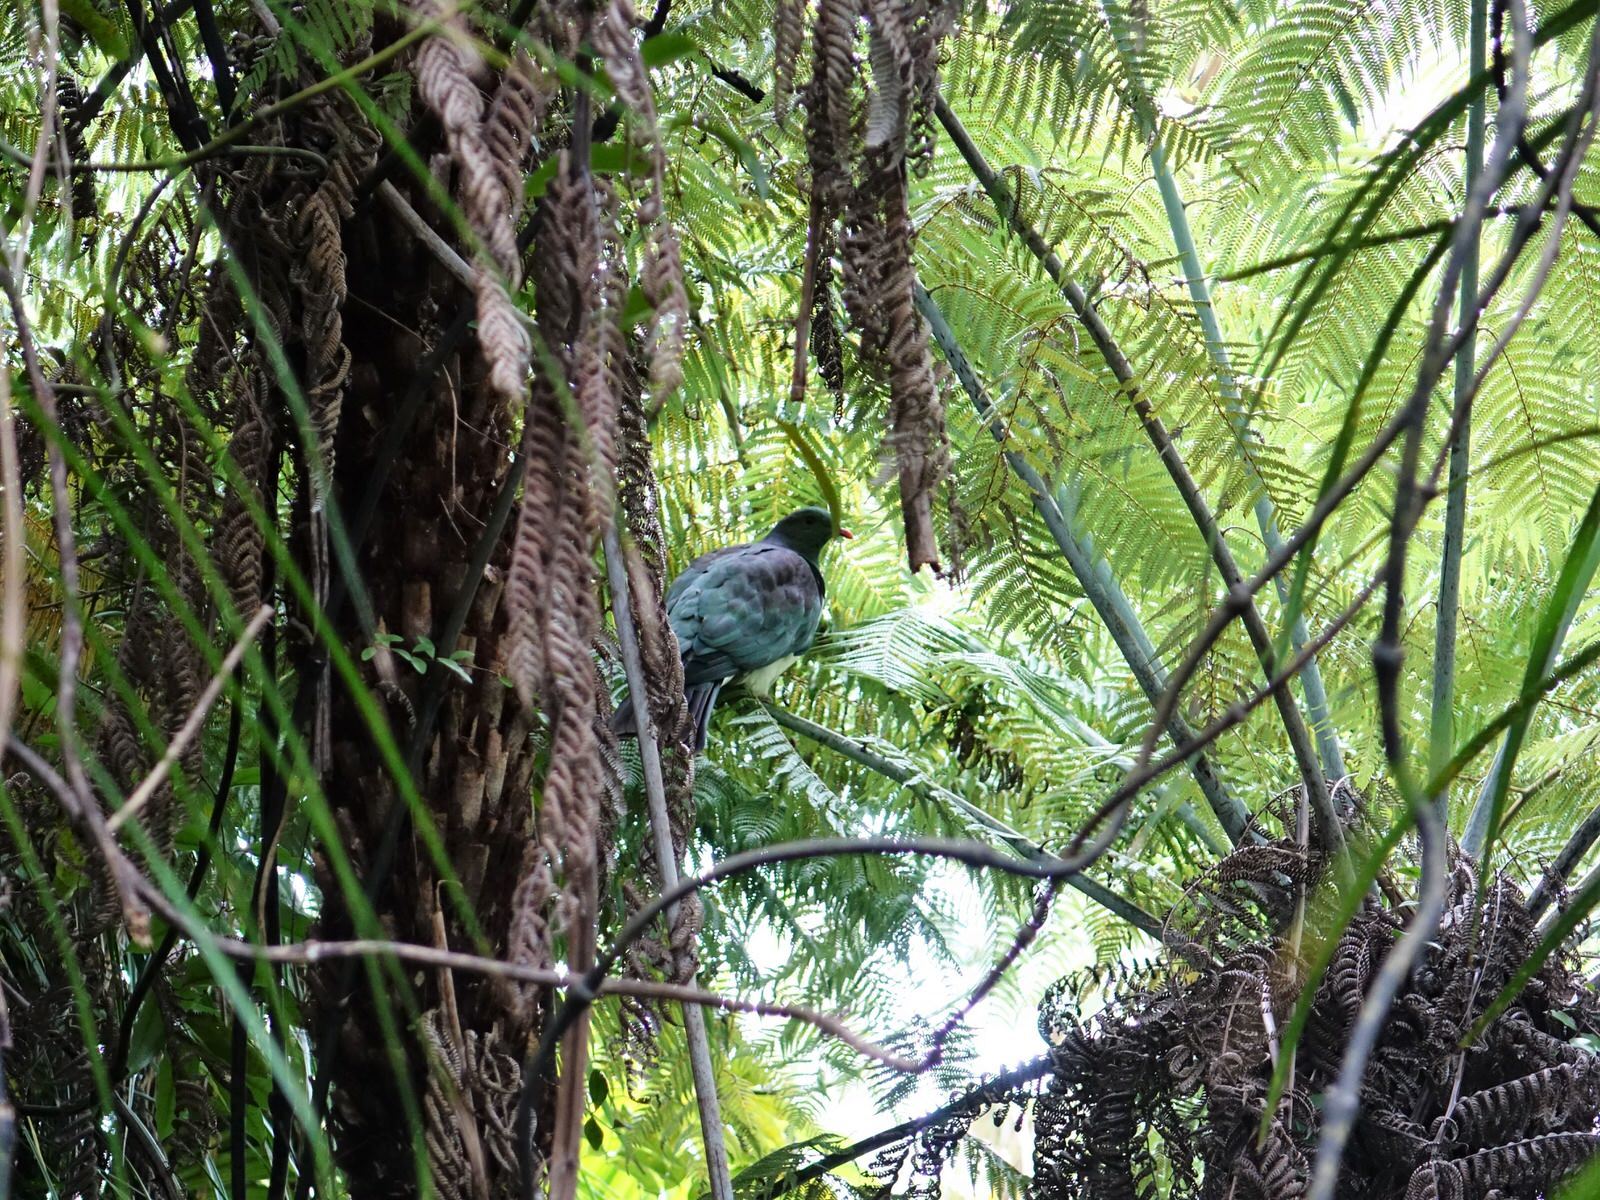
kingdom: Animalia
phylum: Chordata
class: Aves
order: Columbiformes
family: Columbidae
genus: Hemiphaga
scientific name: Hemiphaga novaeseelandiae
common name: New zealand pigeon
